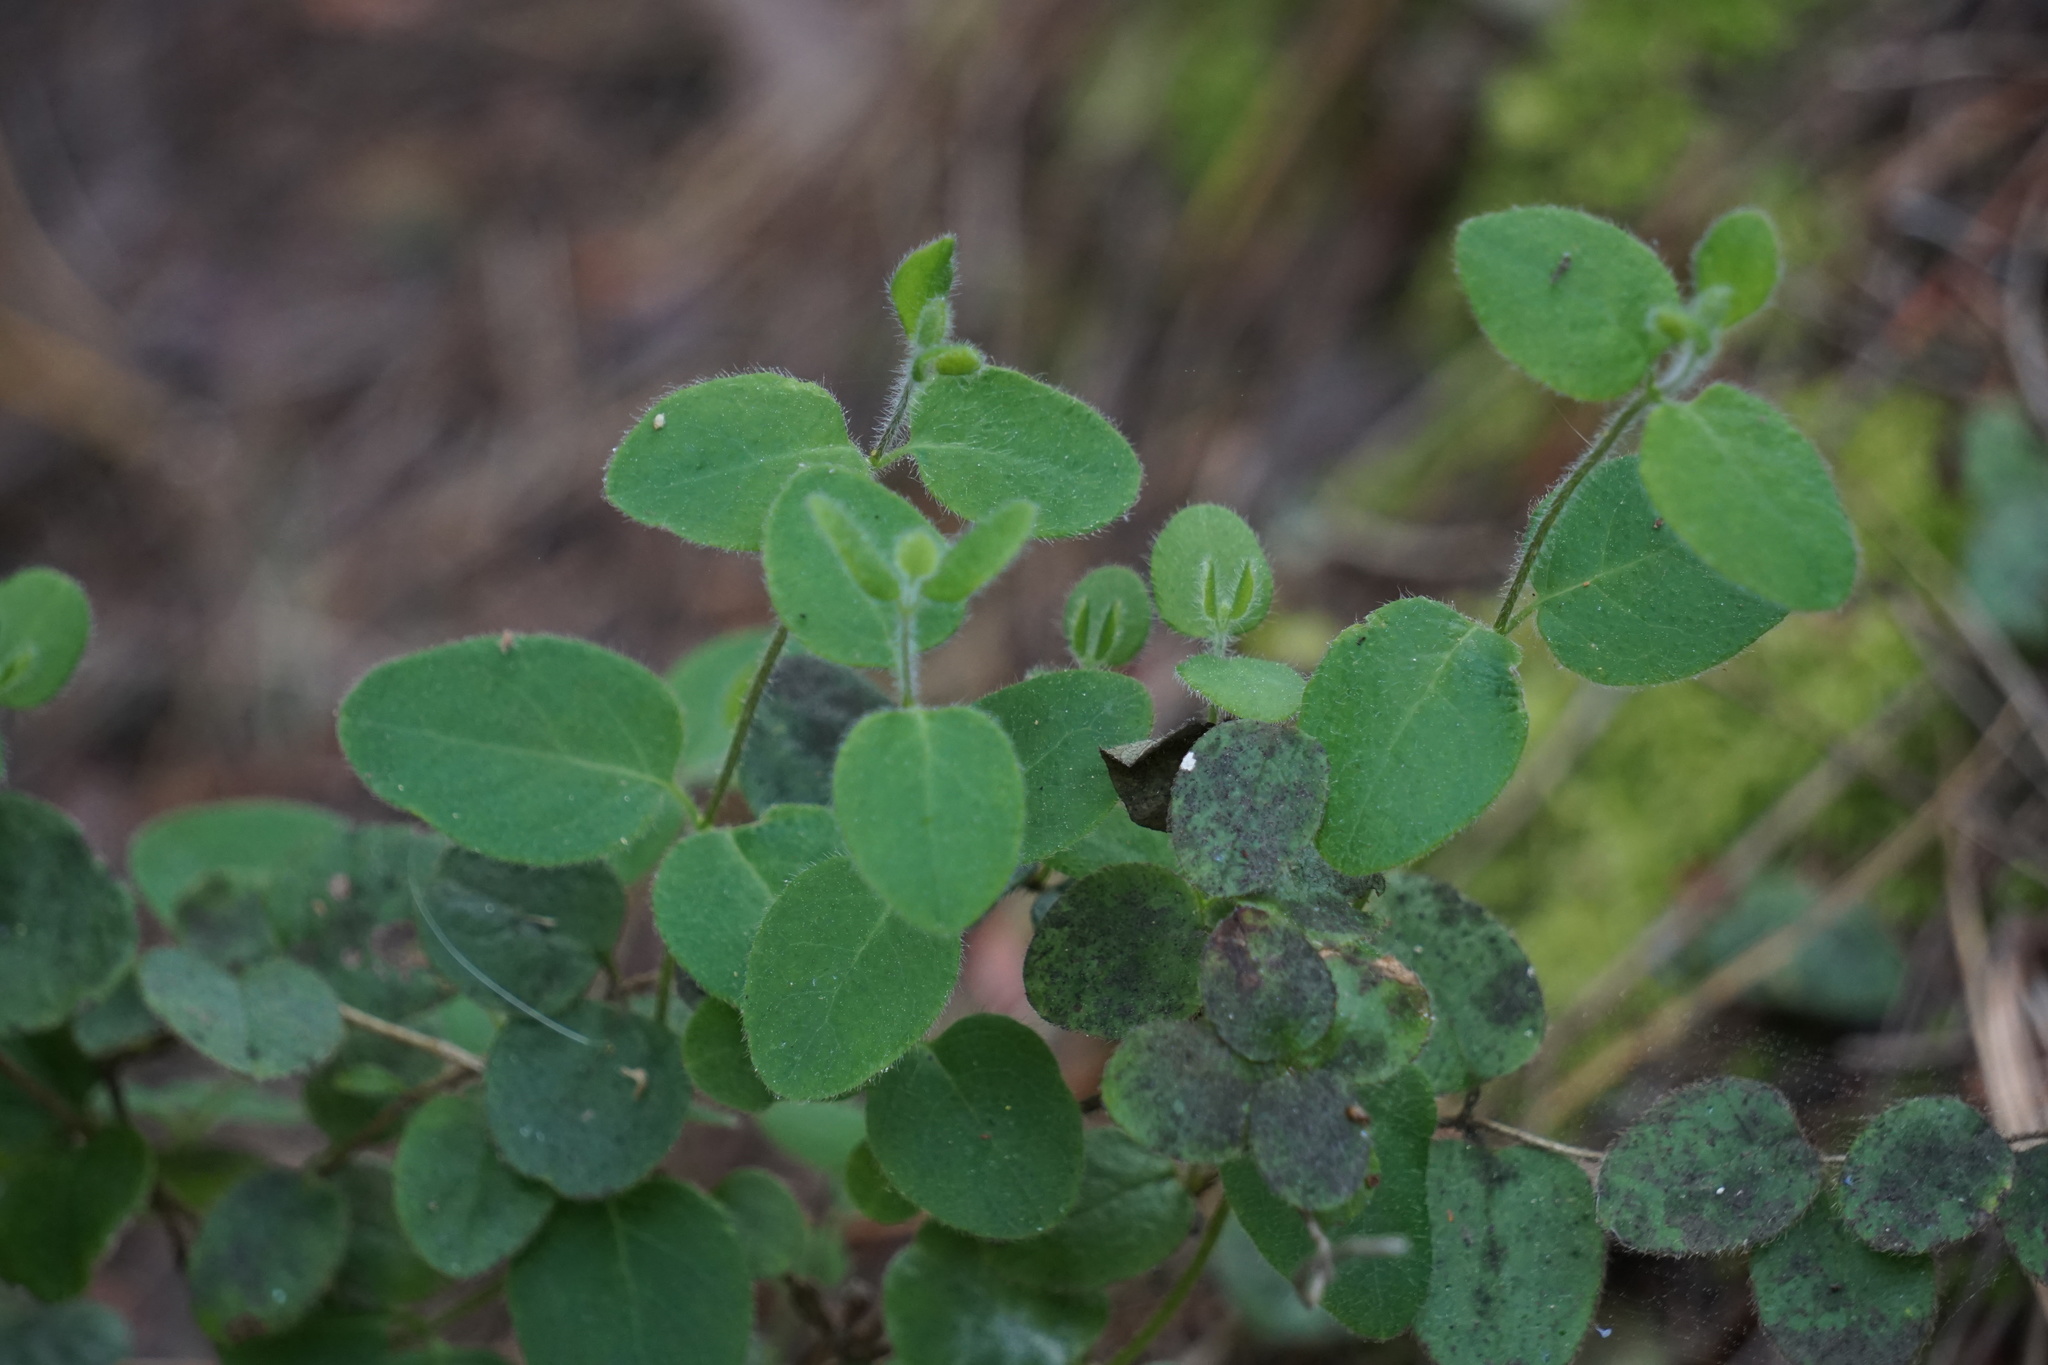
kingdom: Plantae
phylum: Tracheophyta
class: Magnoliopsida
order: Dipsacales
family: Caprifoliaceae
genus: Lonicera
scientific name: Lonicera hispidula
